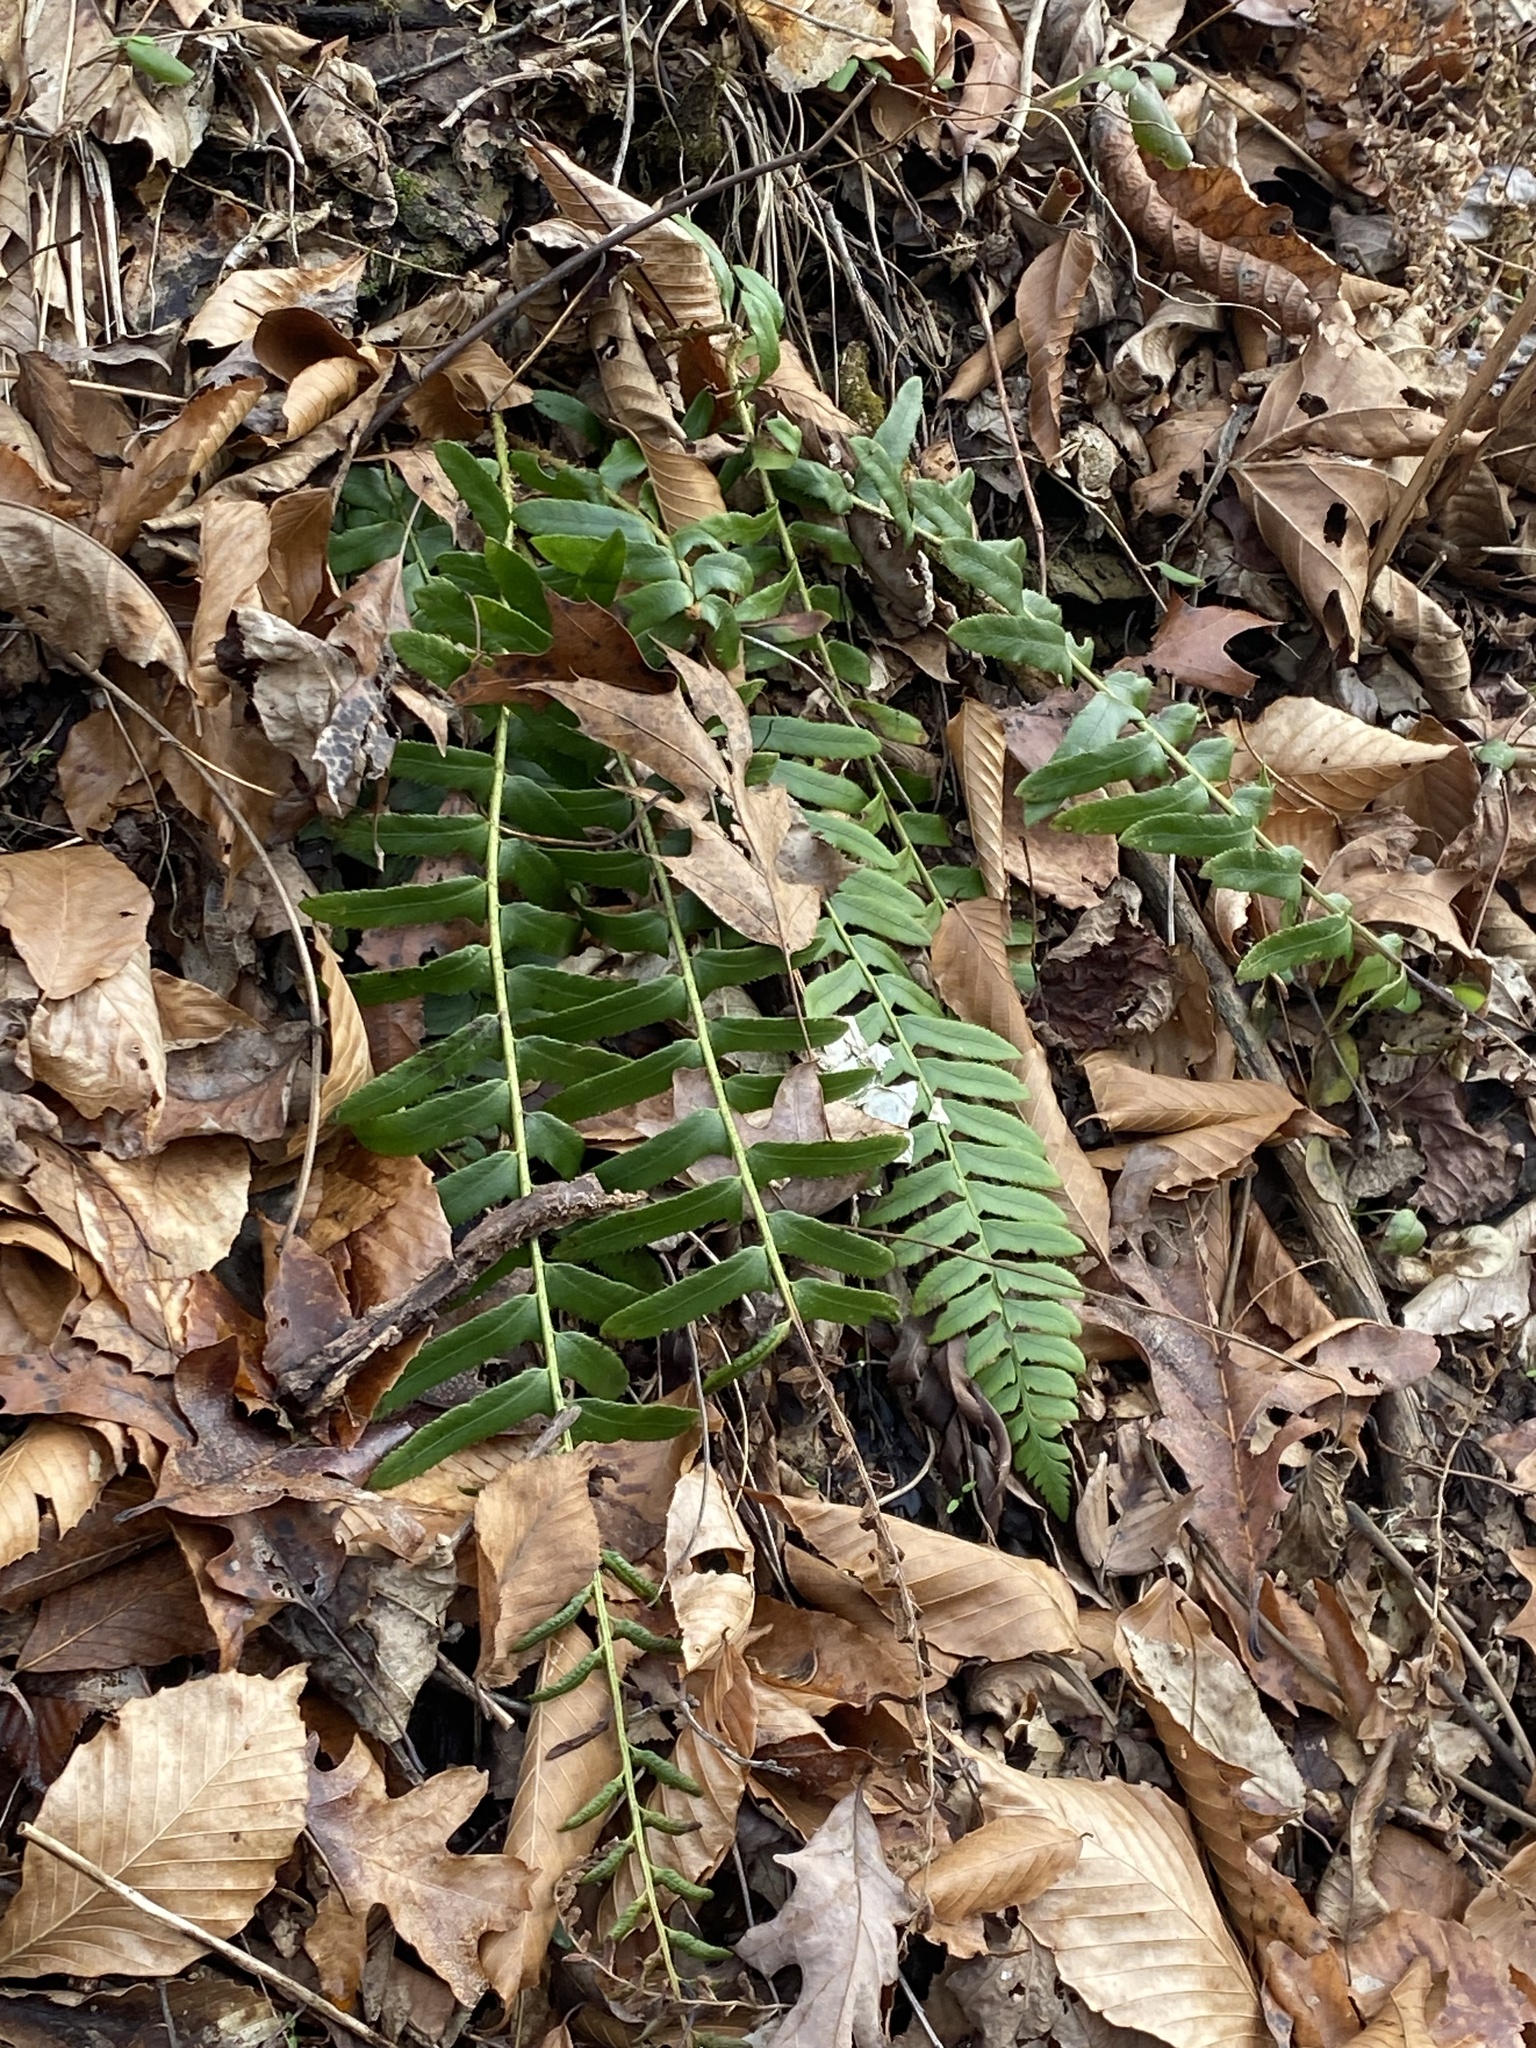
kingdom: Plantae
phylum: Tracheophyta
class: Polypodiopsida
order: Polypodiales
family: Dryopteridaceae
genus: Polystichum
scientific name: Polystichum acrostichoides
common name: Christmas fern
